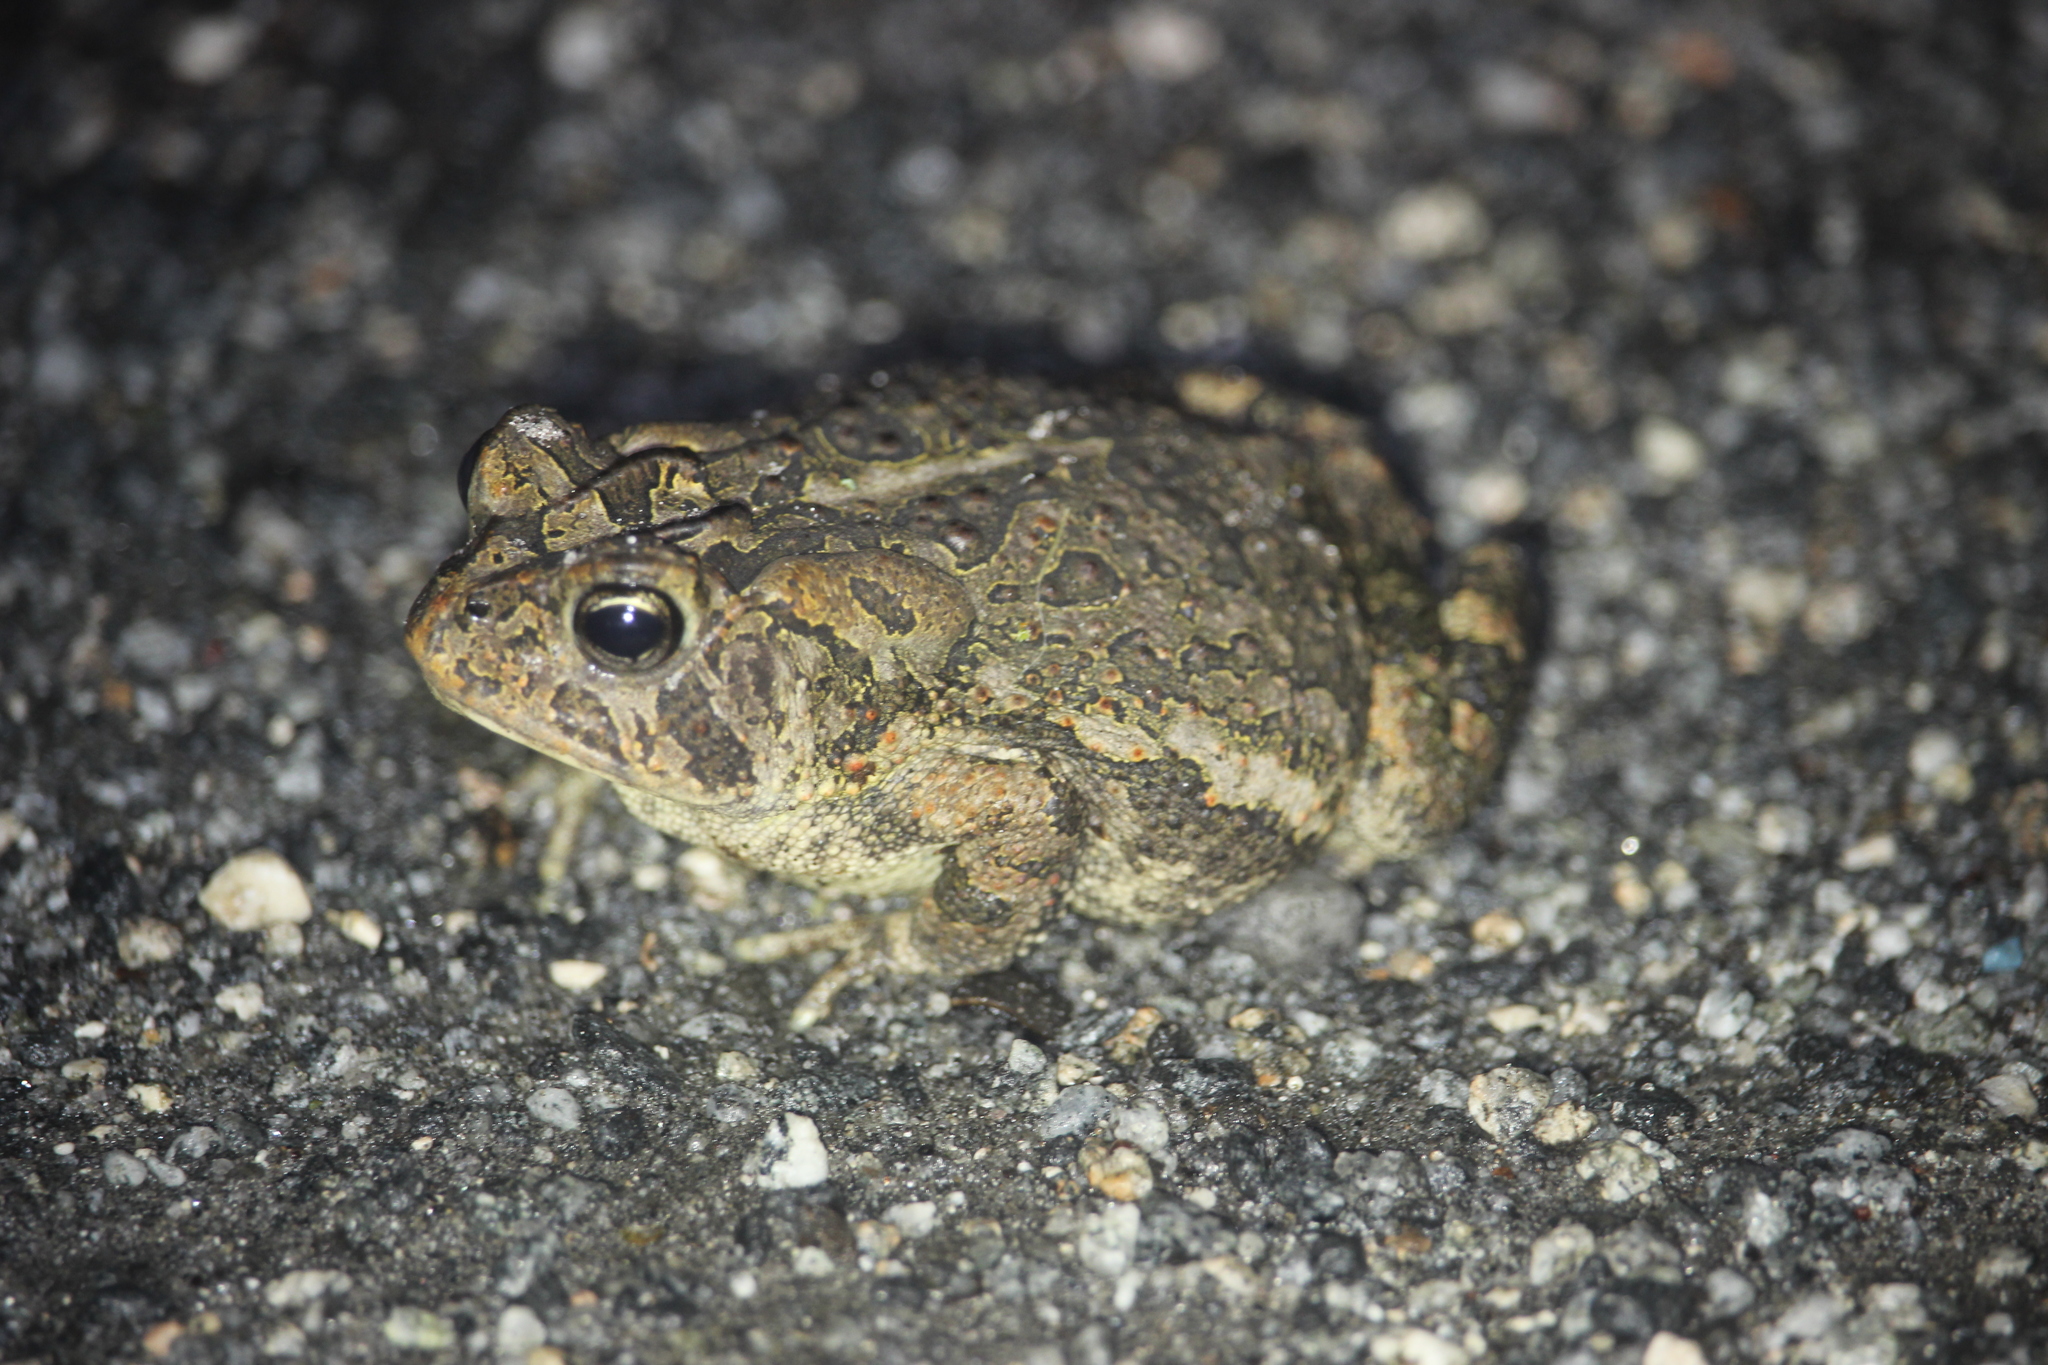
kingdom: Animalia
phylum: Chordata
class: Amphibia
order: Anura
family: Bufonidae
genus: Anaxyrus
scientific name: Anaxyrus terrestris
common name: Southern toad
